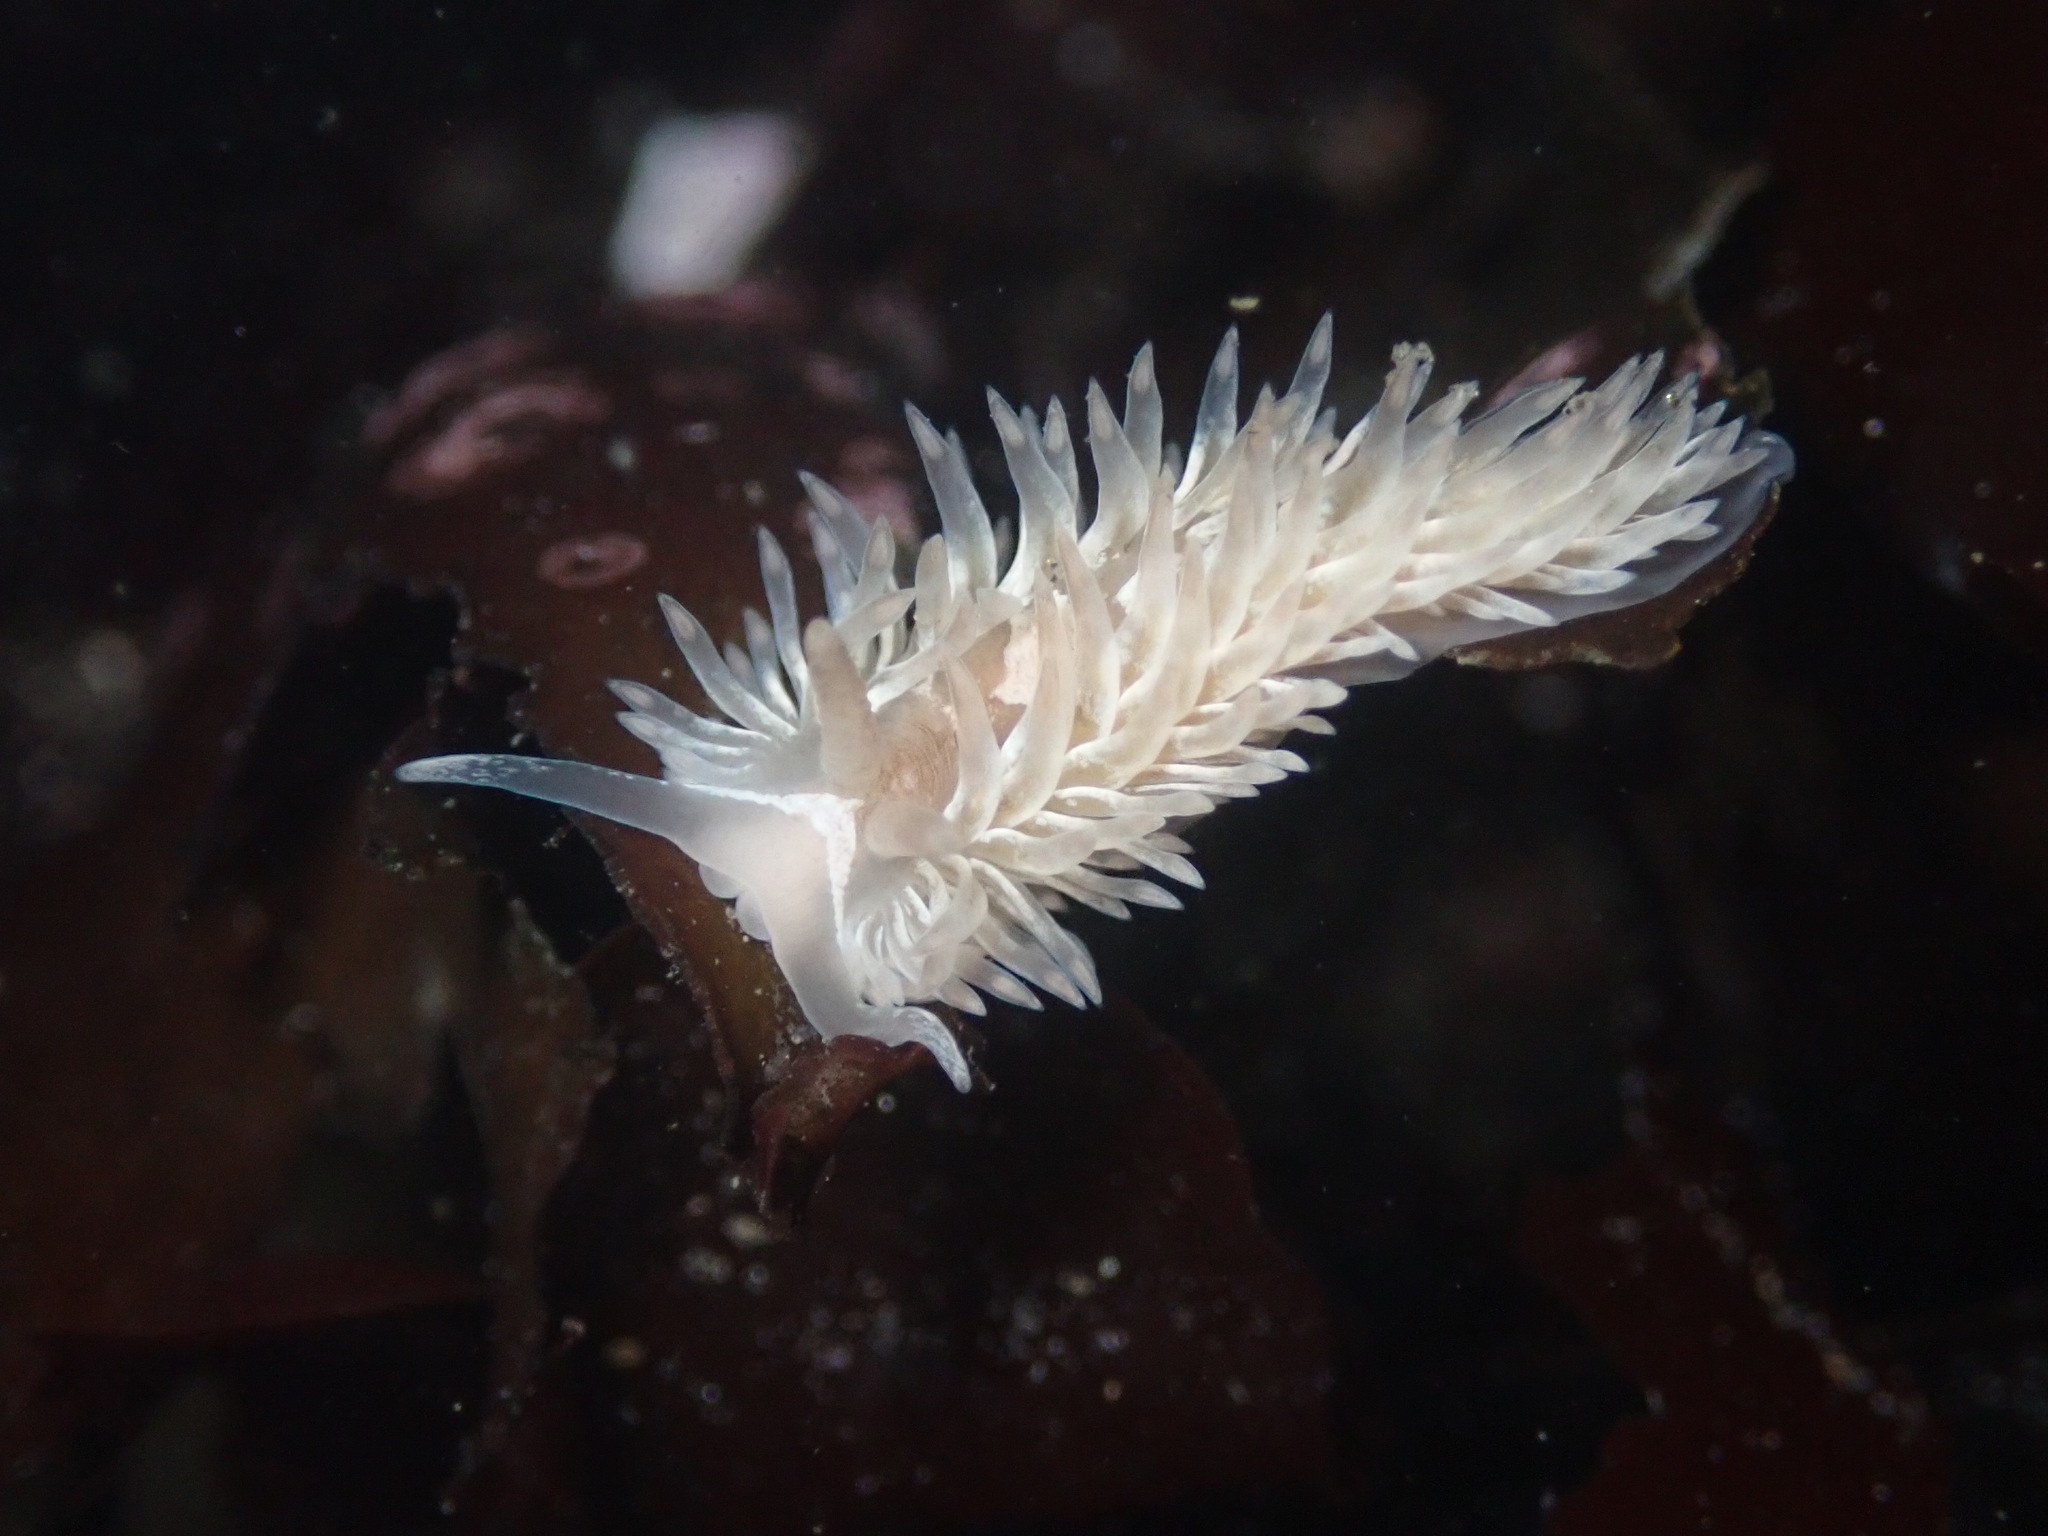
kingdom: Animalia
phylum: Mollusca
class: Gastropoda
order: Nudibranchia
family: Aeolidiidae
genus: Aeolidia
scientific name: Aeolidia loui
